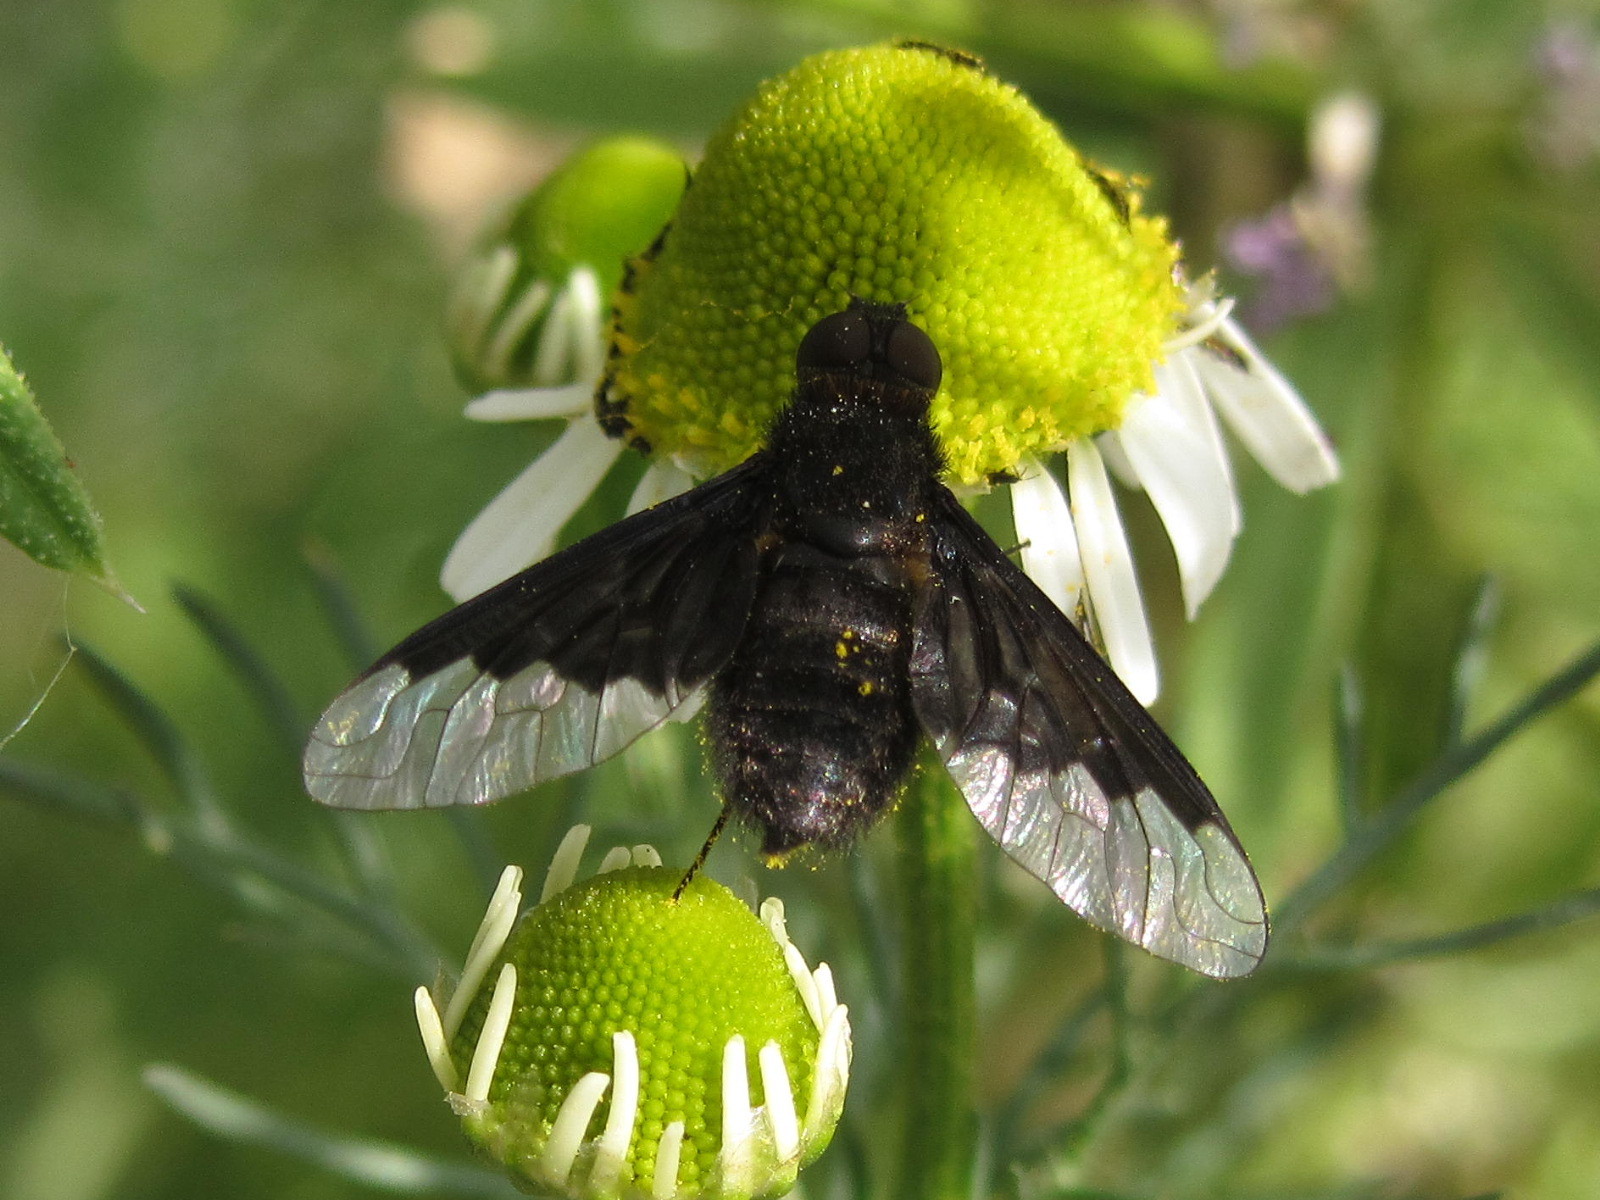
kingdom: Animalia
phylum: Arthropoda
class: Insecta
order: Diptera
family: Bombyliidae
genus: Hemipenthes
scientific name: Hemipenthes morio
